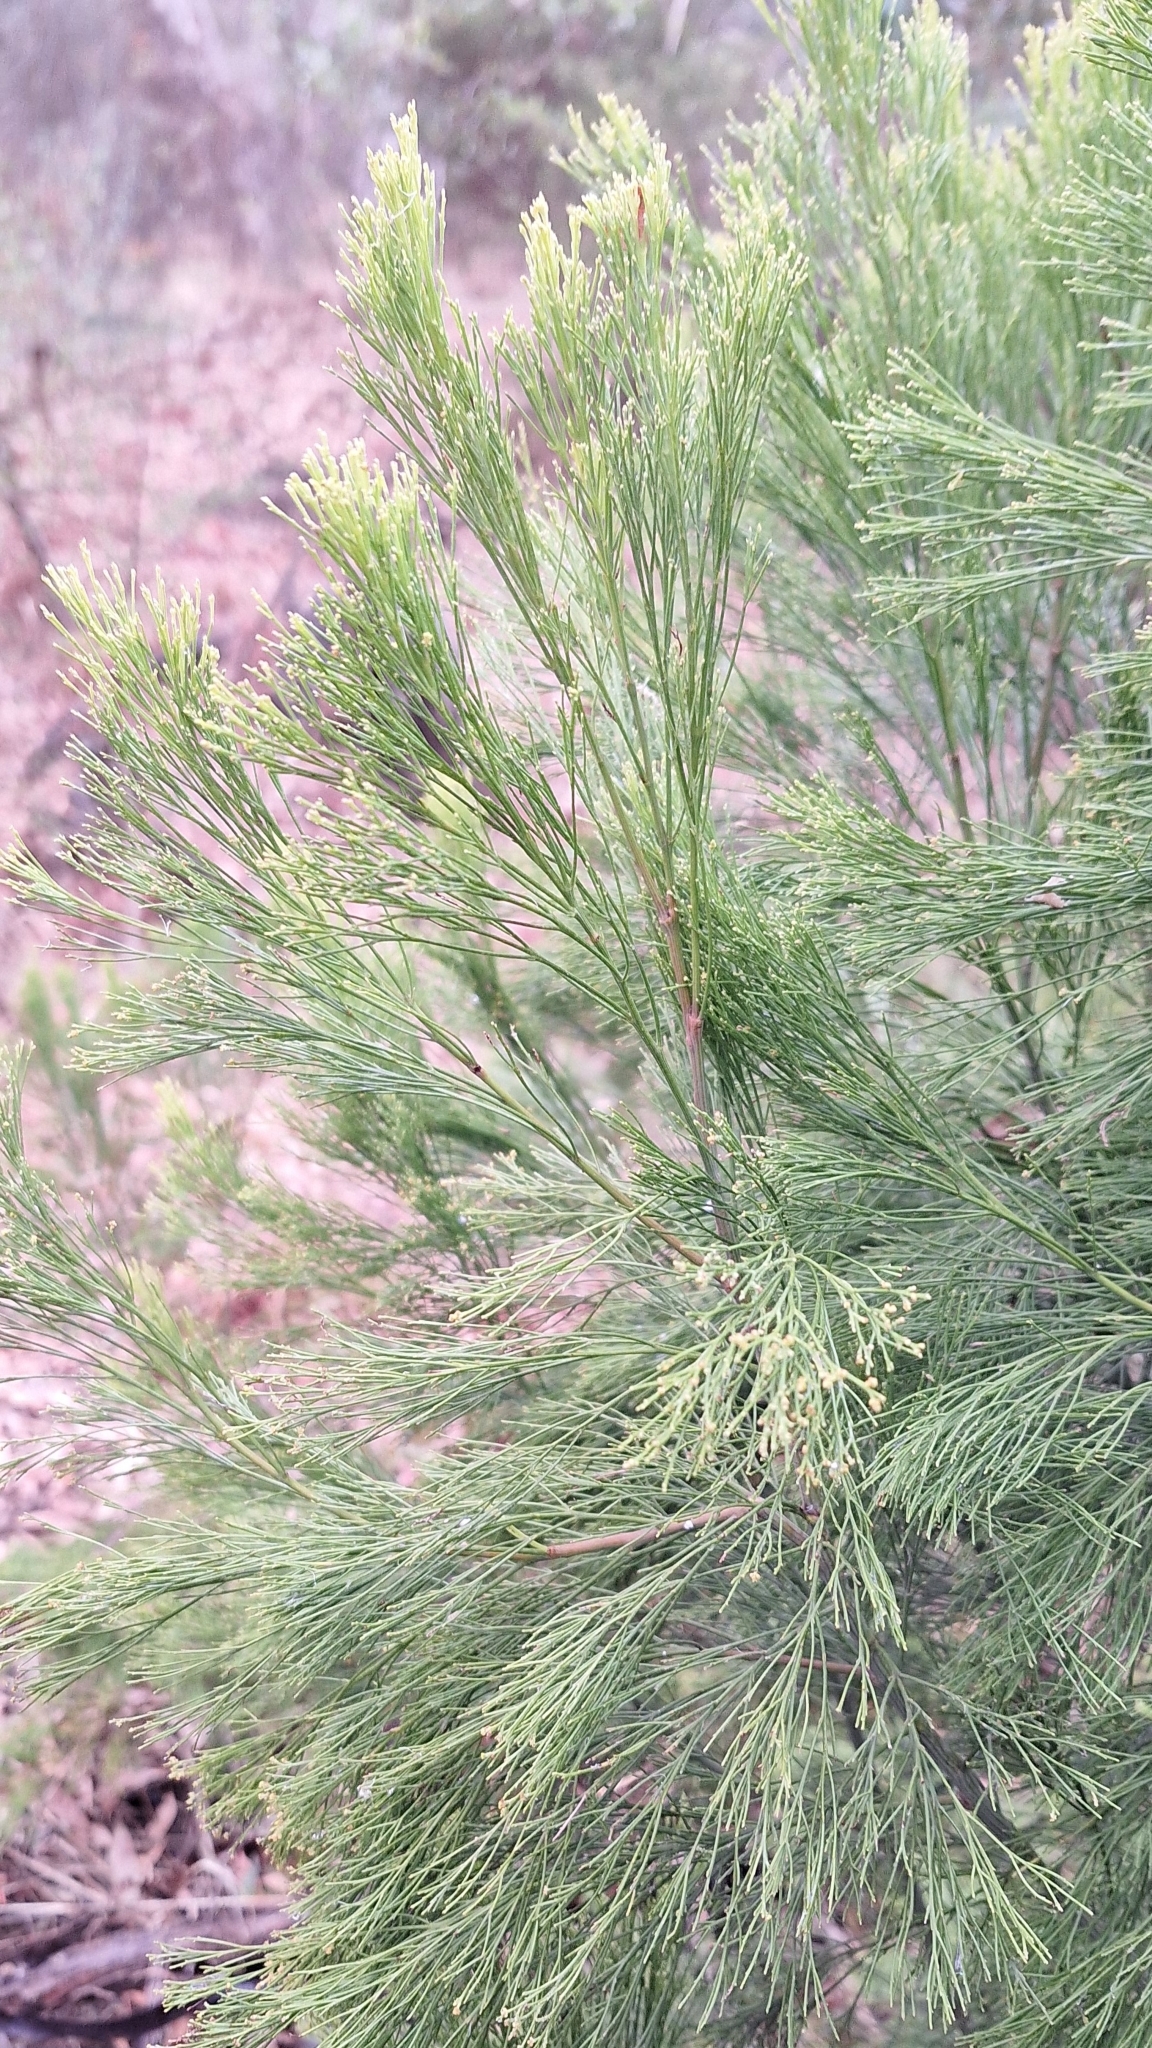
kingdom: Plantae
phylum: Tracheophyta
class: Magnoliopsida
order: Santalales
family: Santalaceae
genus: Exocarpos
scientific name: Exocarpos cupressiformis
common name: Cherry ballart
